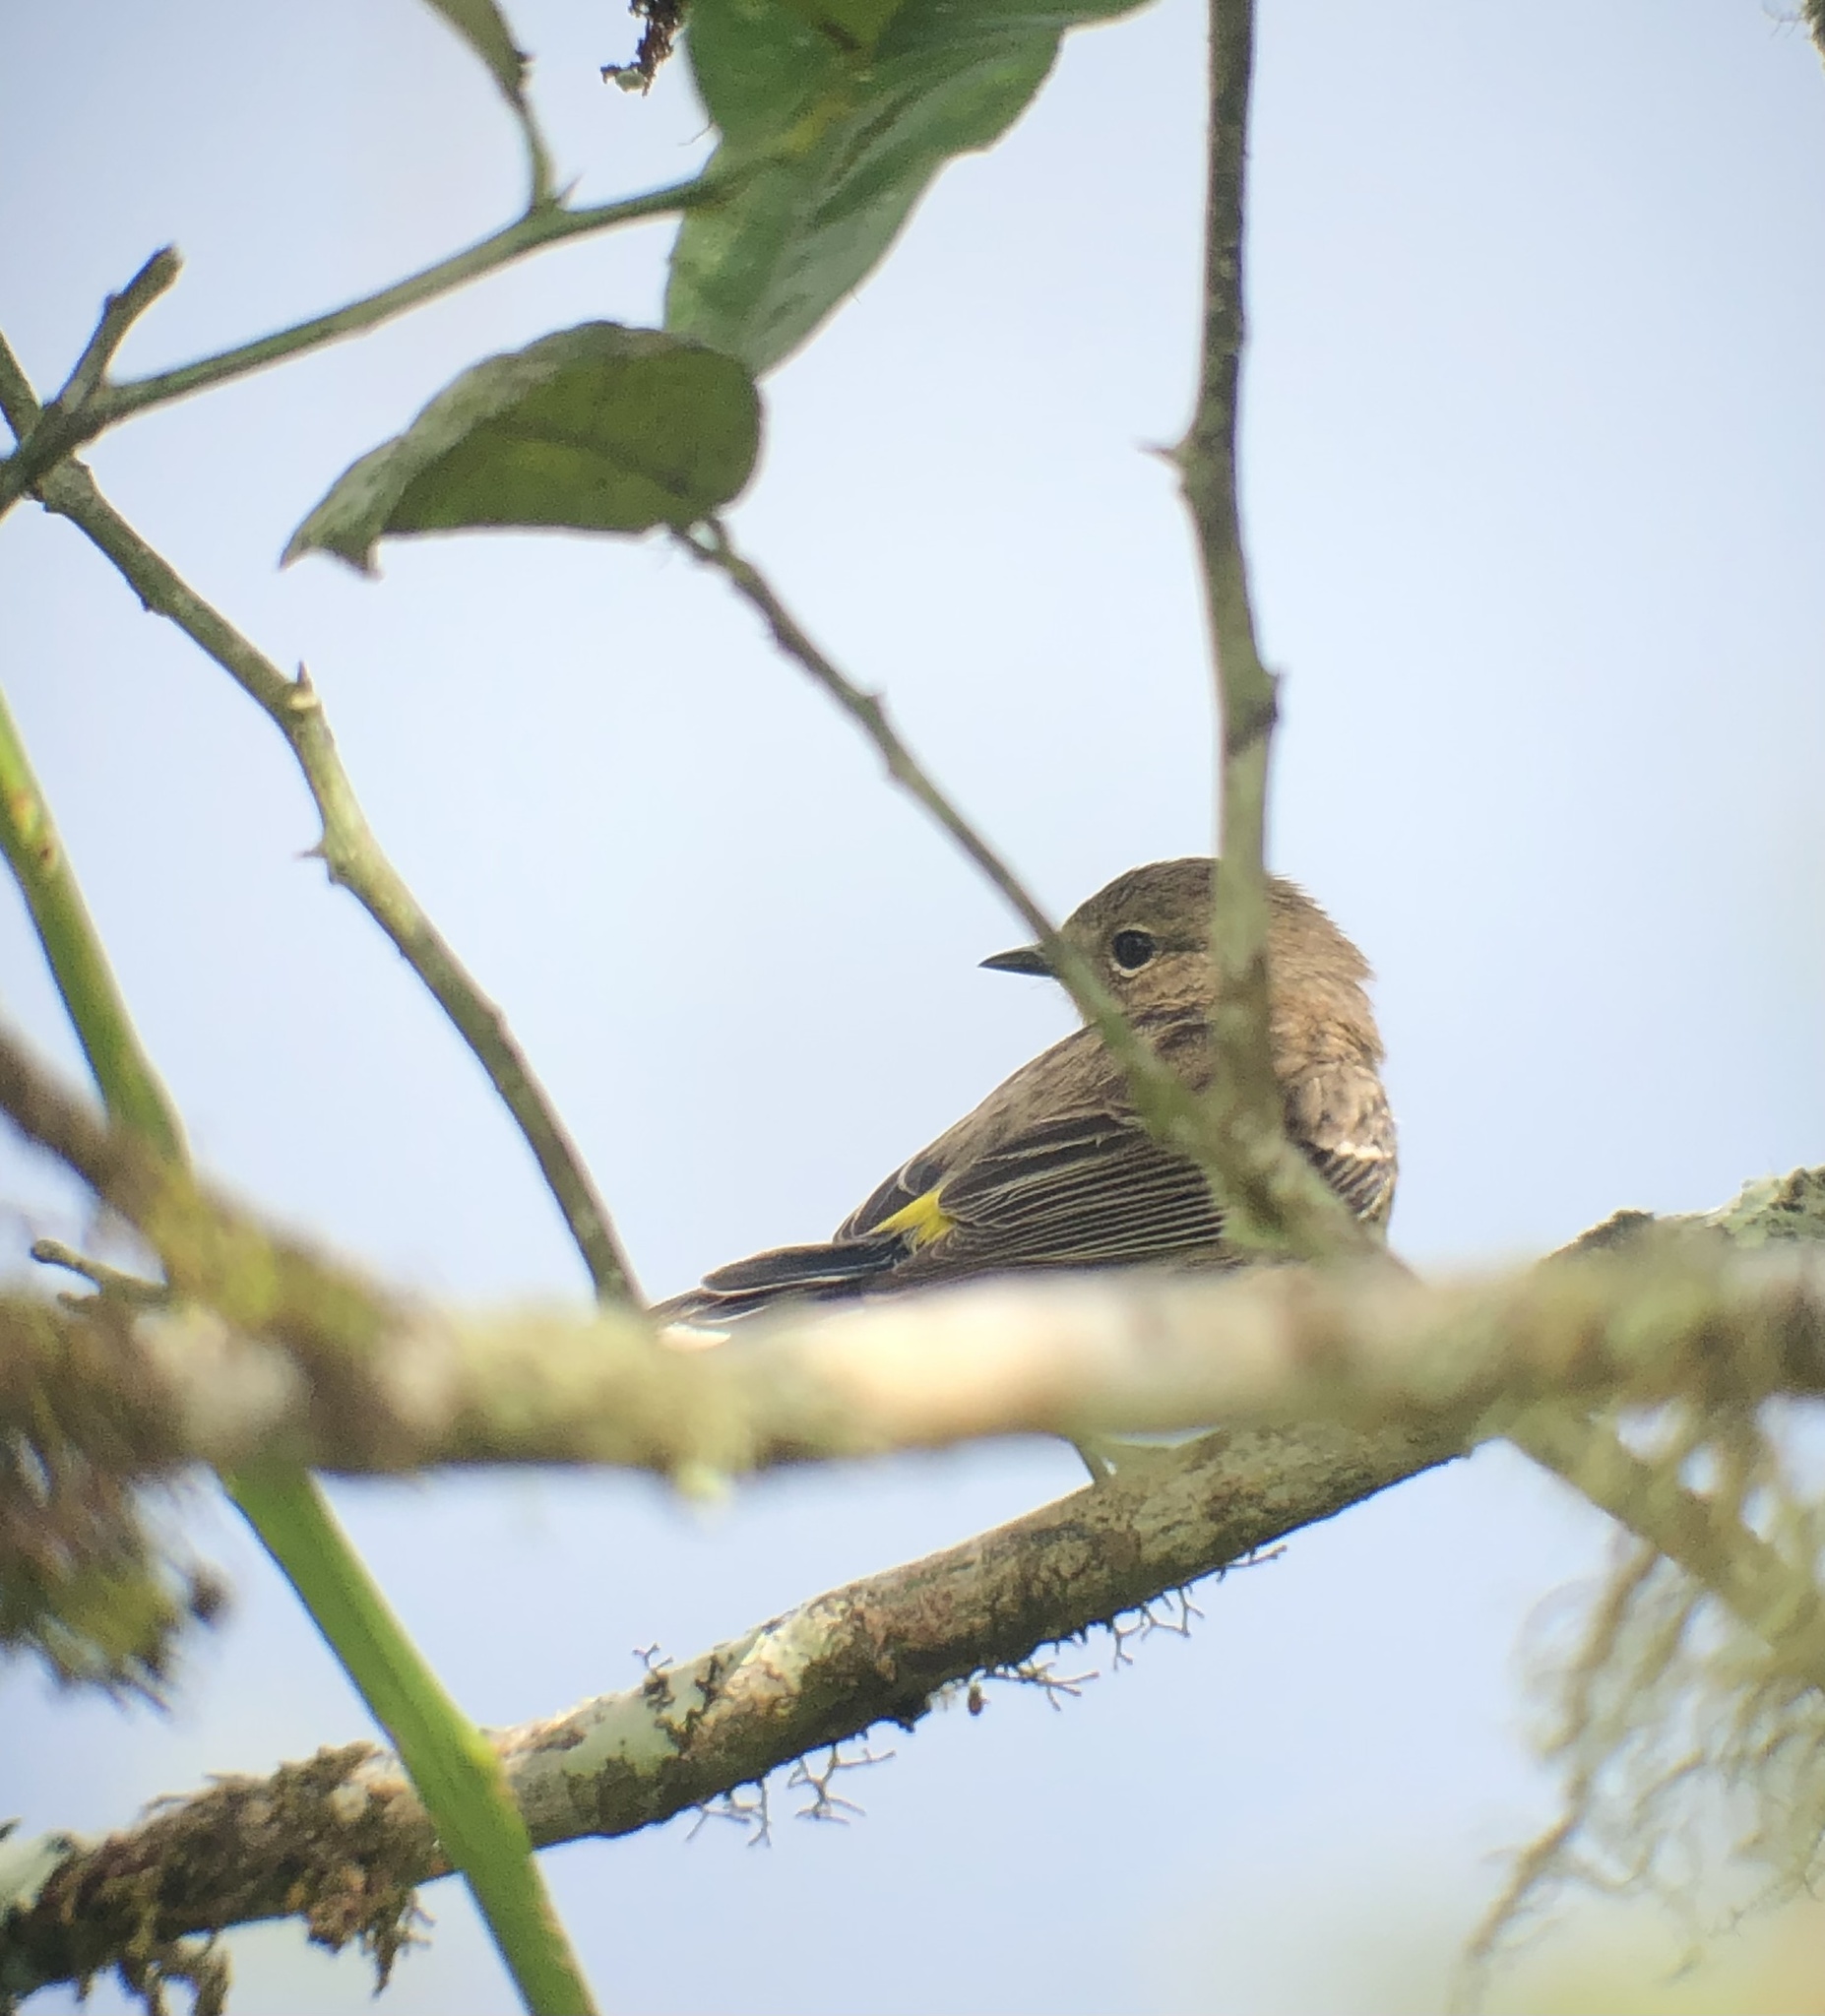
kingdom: Animalia
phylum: Chordata
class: Aves
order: Passeriformes
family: Parulidae
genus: Setophaga
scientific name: Setophaga coronata
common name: Myrtle warbler
